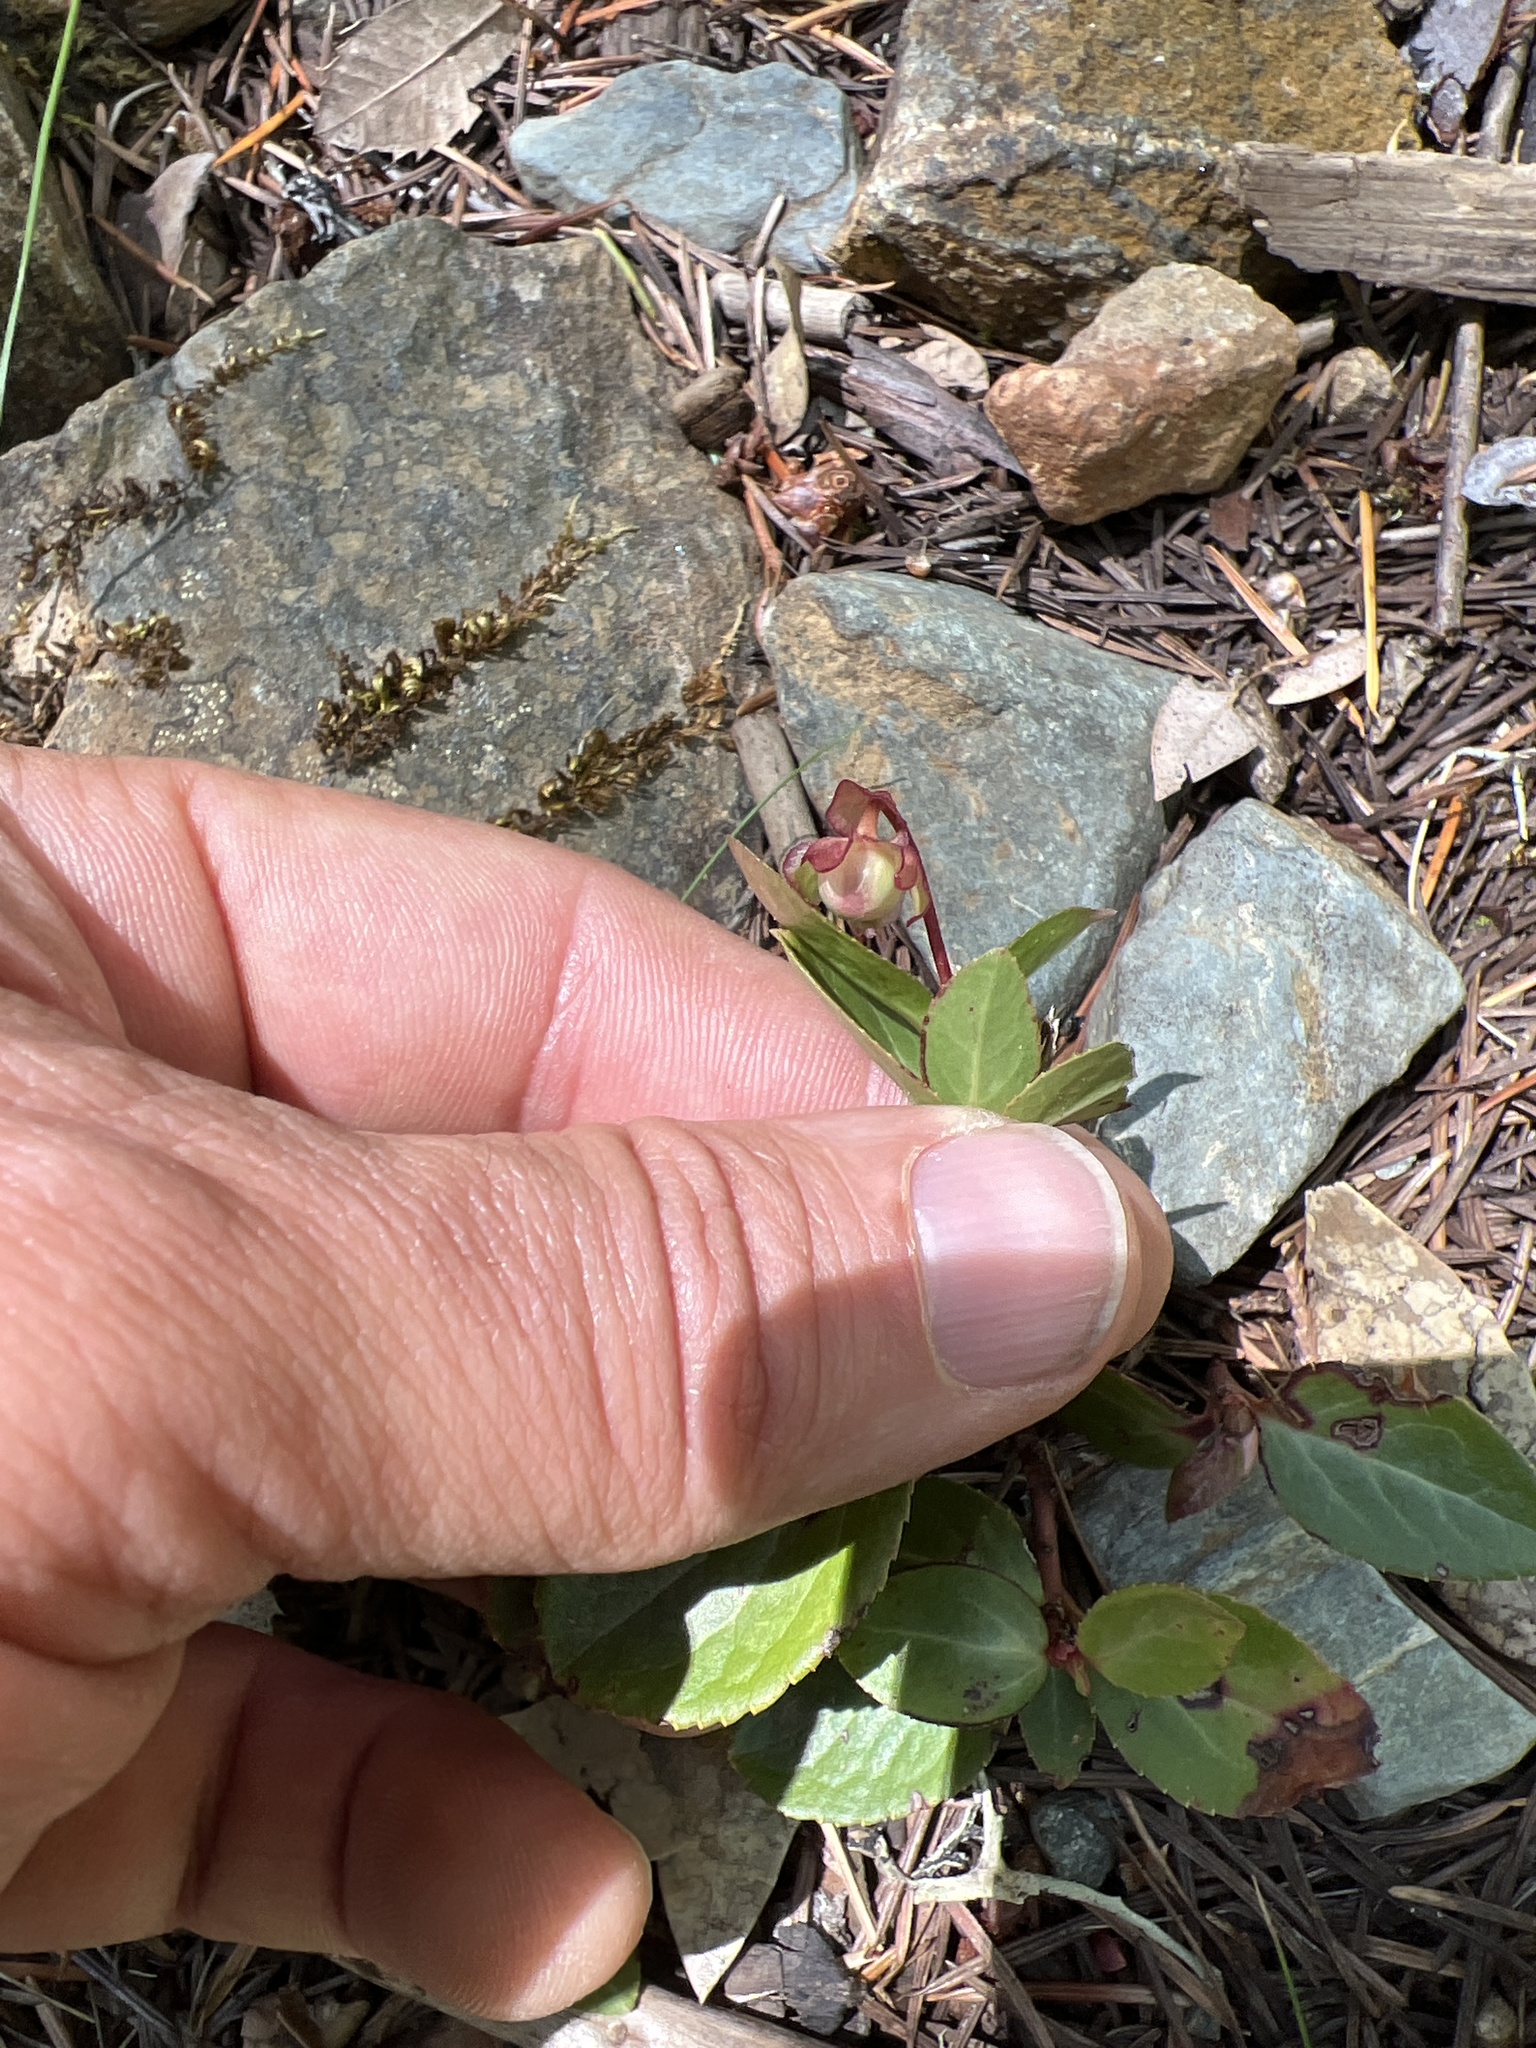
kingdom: Plantae
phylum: Tracheophyta
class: Magnoliopsida
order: Ericales
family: Ericaceae
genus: Chimaphila
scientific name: Chimaphila menziesii
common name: Menzies' pipsissewa
